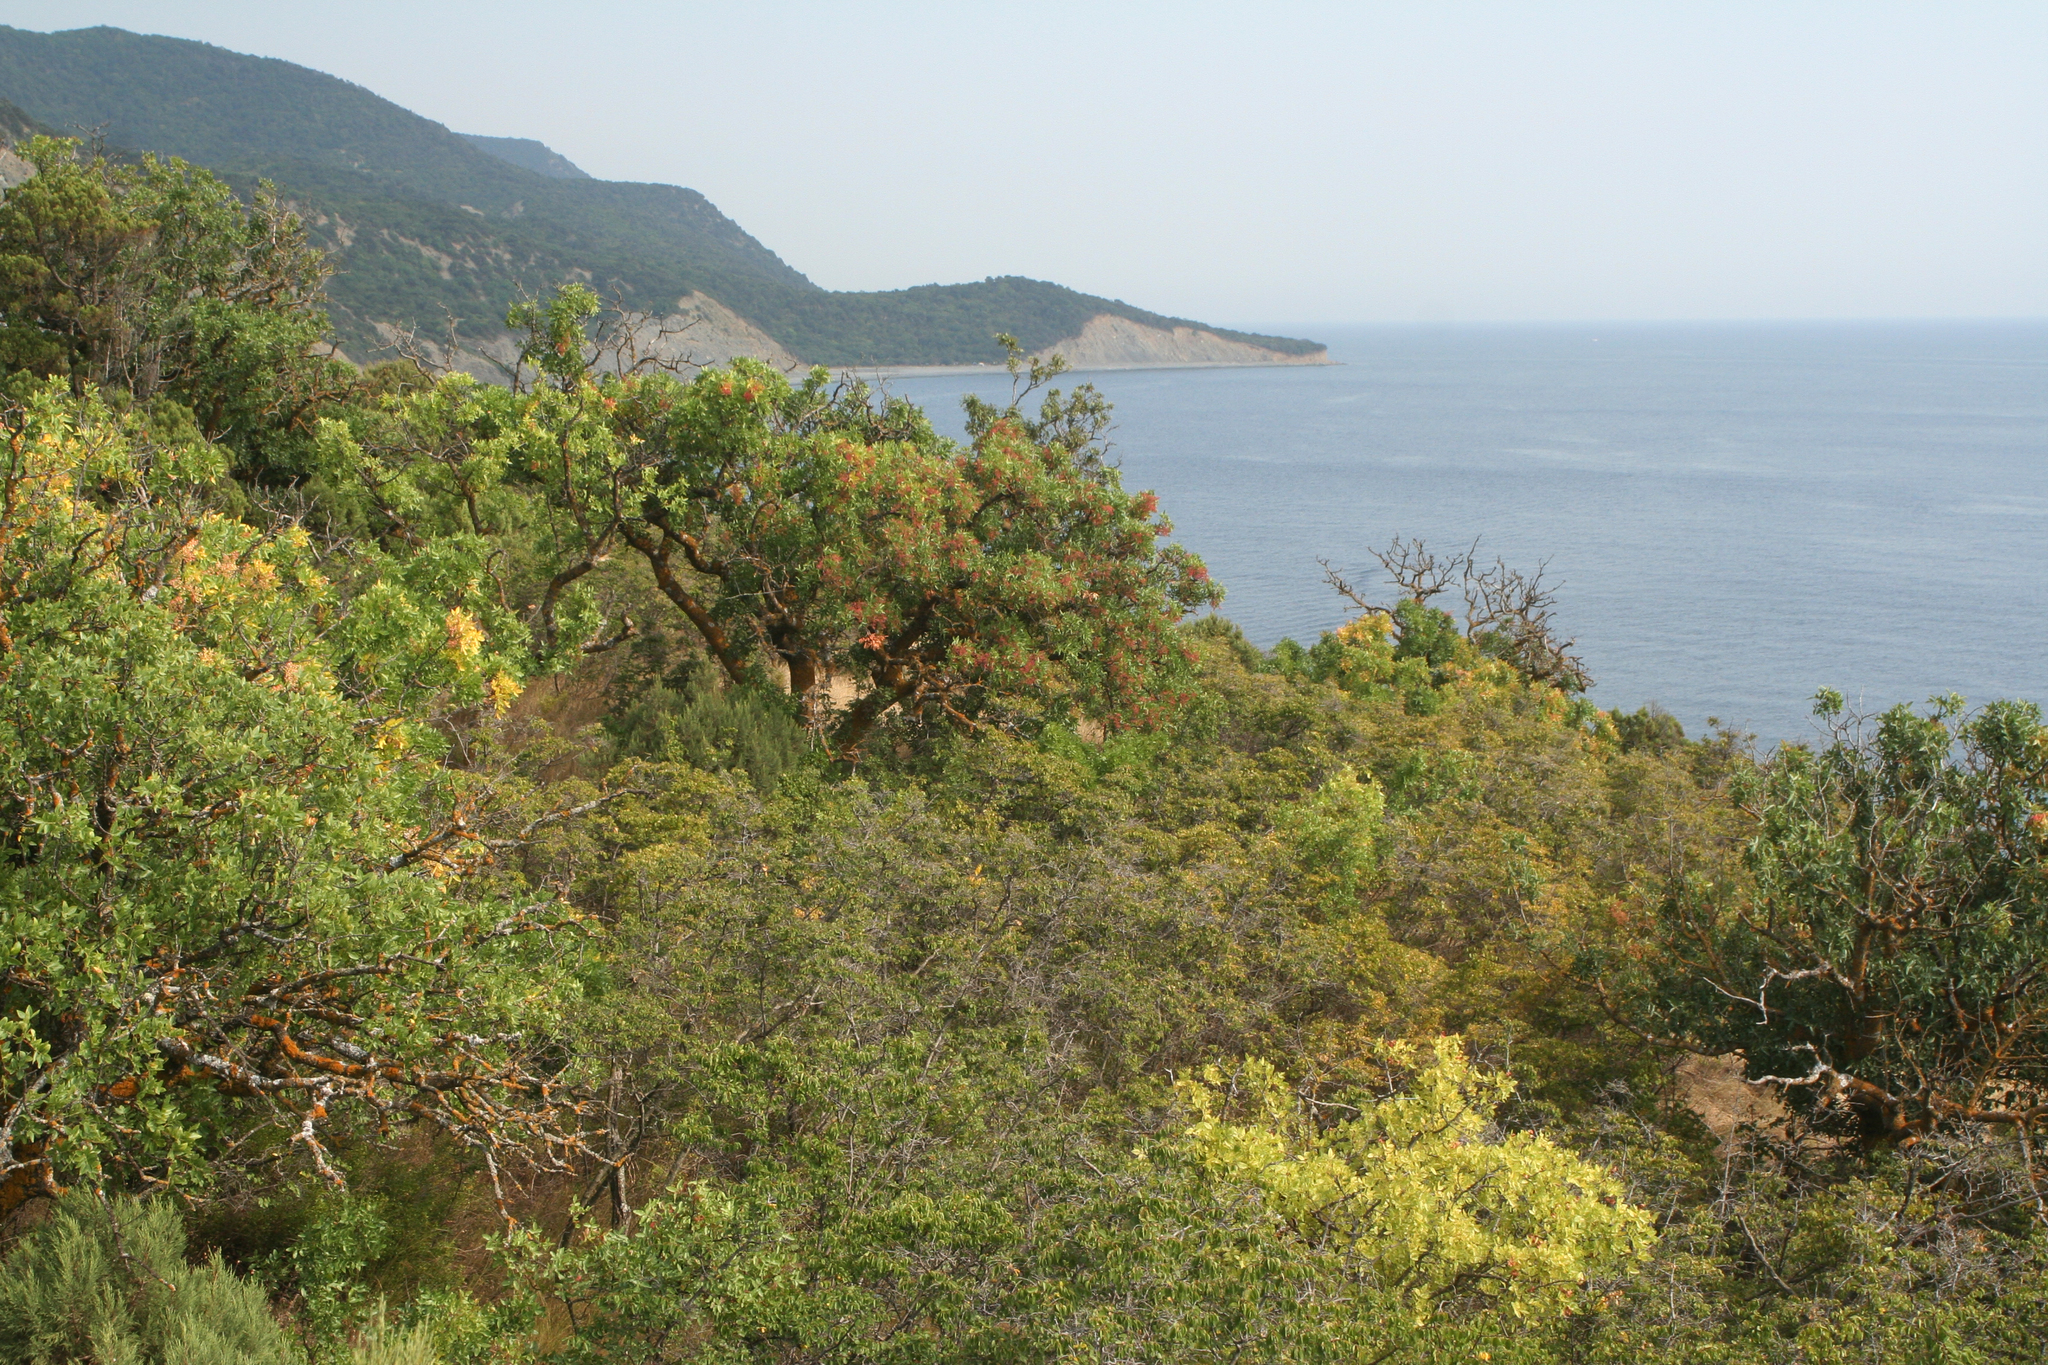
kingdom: Plantae
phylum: Tracheophyta
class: Magnoliopsida
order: Sapindales
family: Anacardiaceae
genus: Pistacia
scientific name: Pistacia atlantica
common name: Mt. atlas mastic tree
